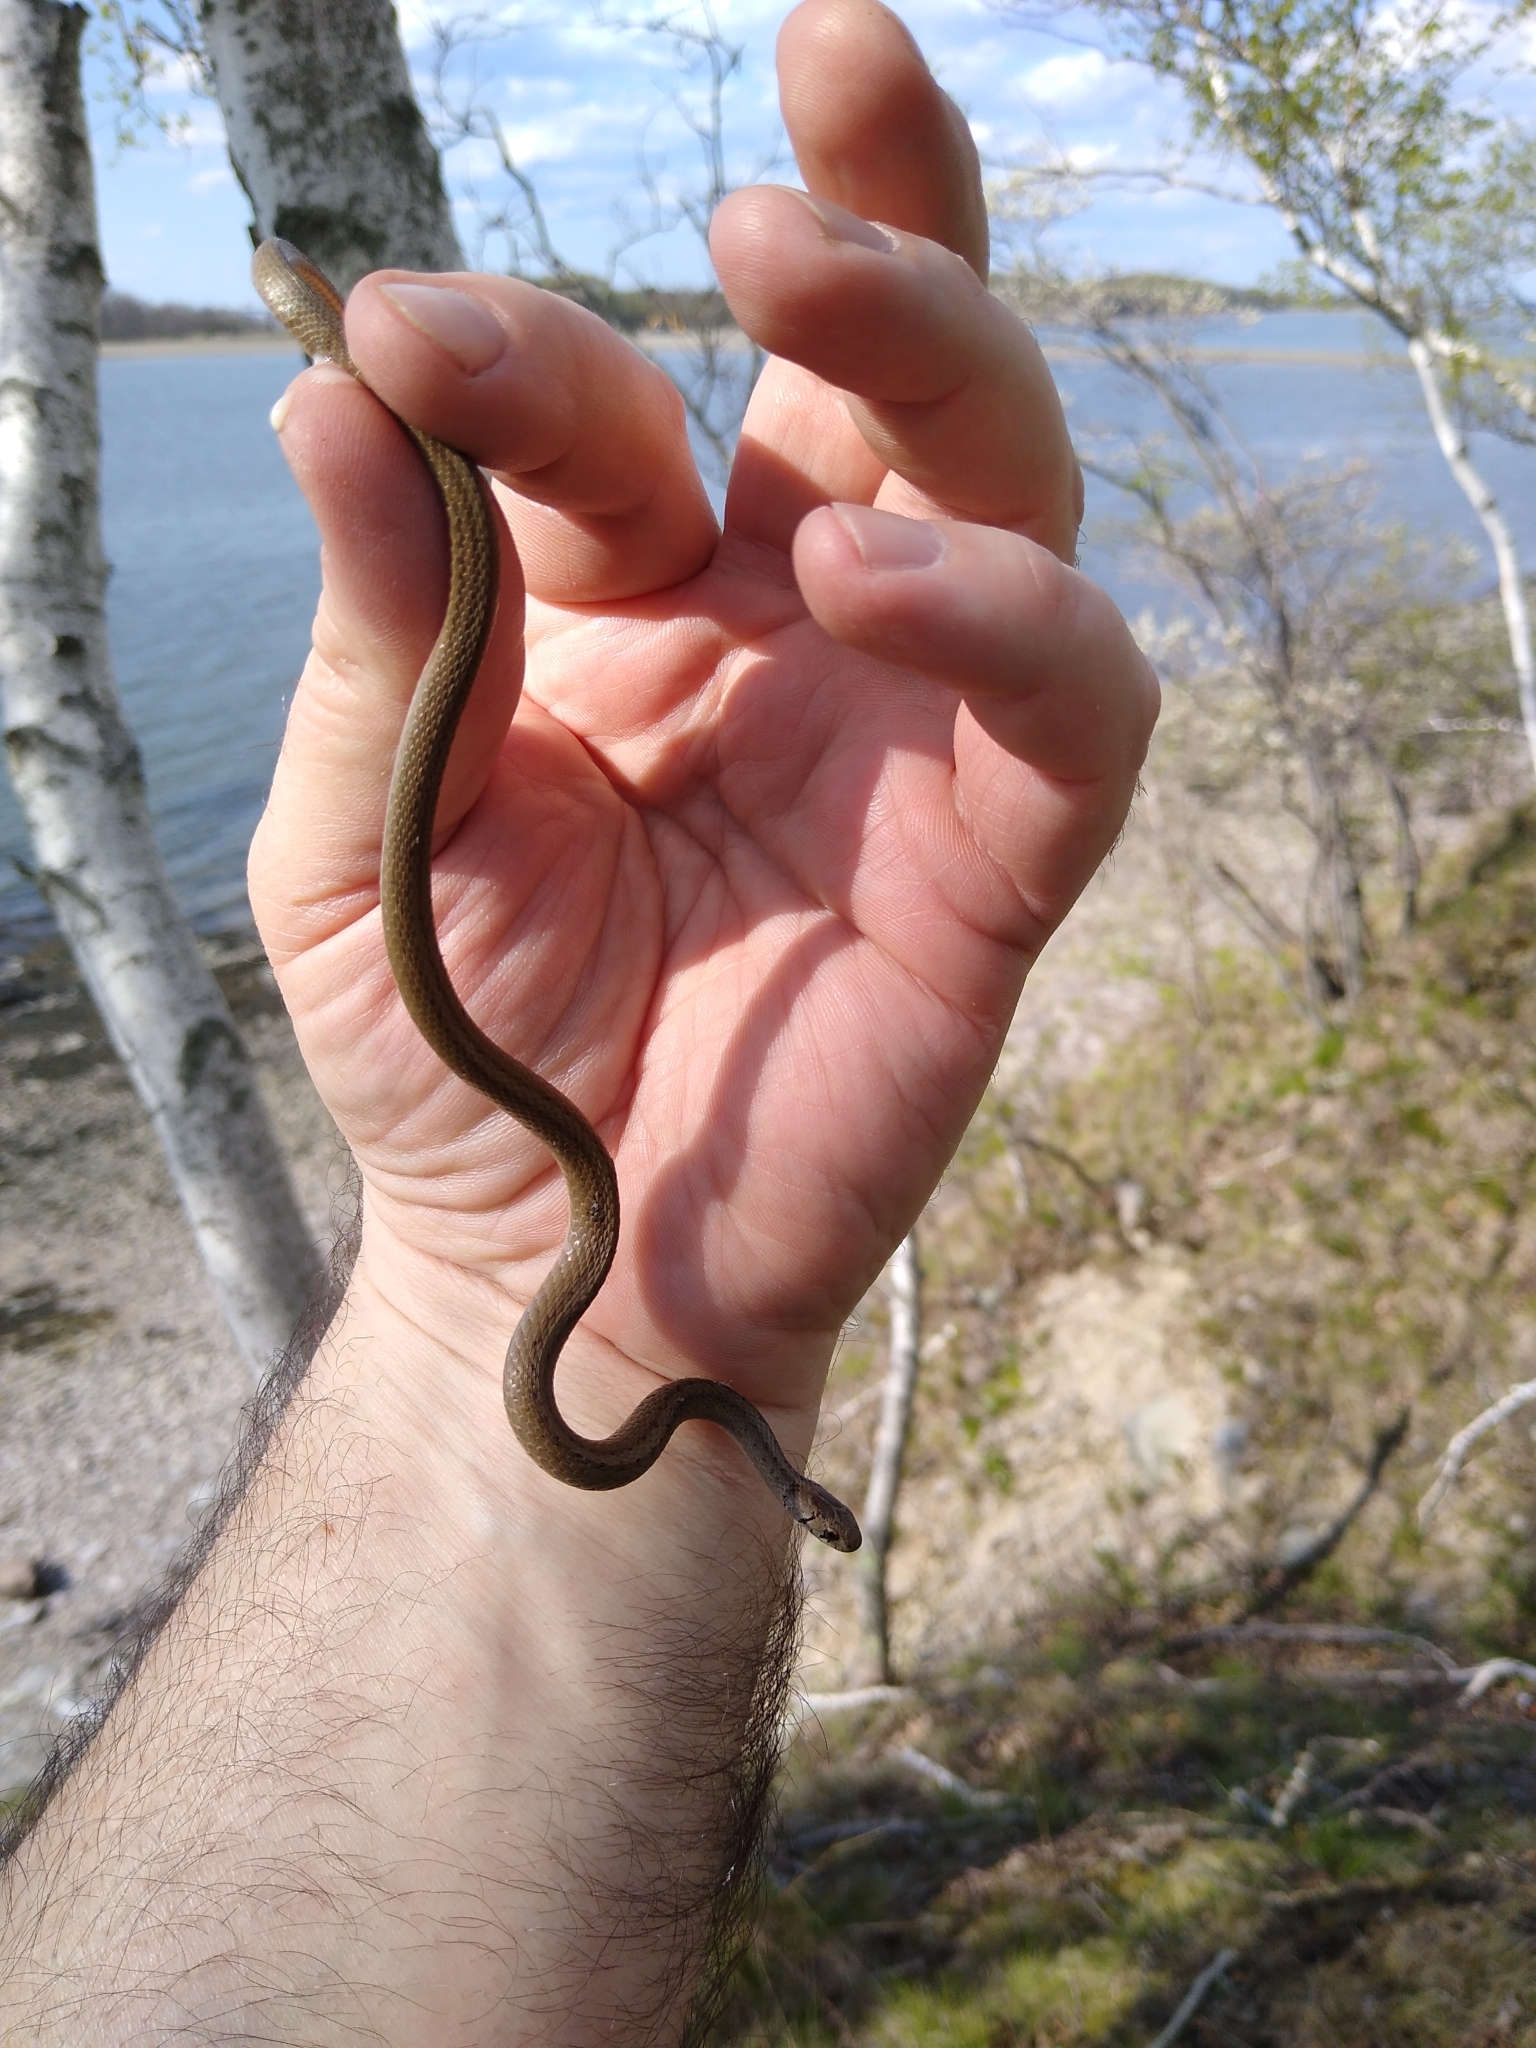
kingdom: Animalia
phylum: Chordata
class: Squamata
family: Colubridae
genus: Storeria
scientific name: Storeria dekayi
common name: (dekay’s) brown snake
